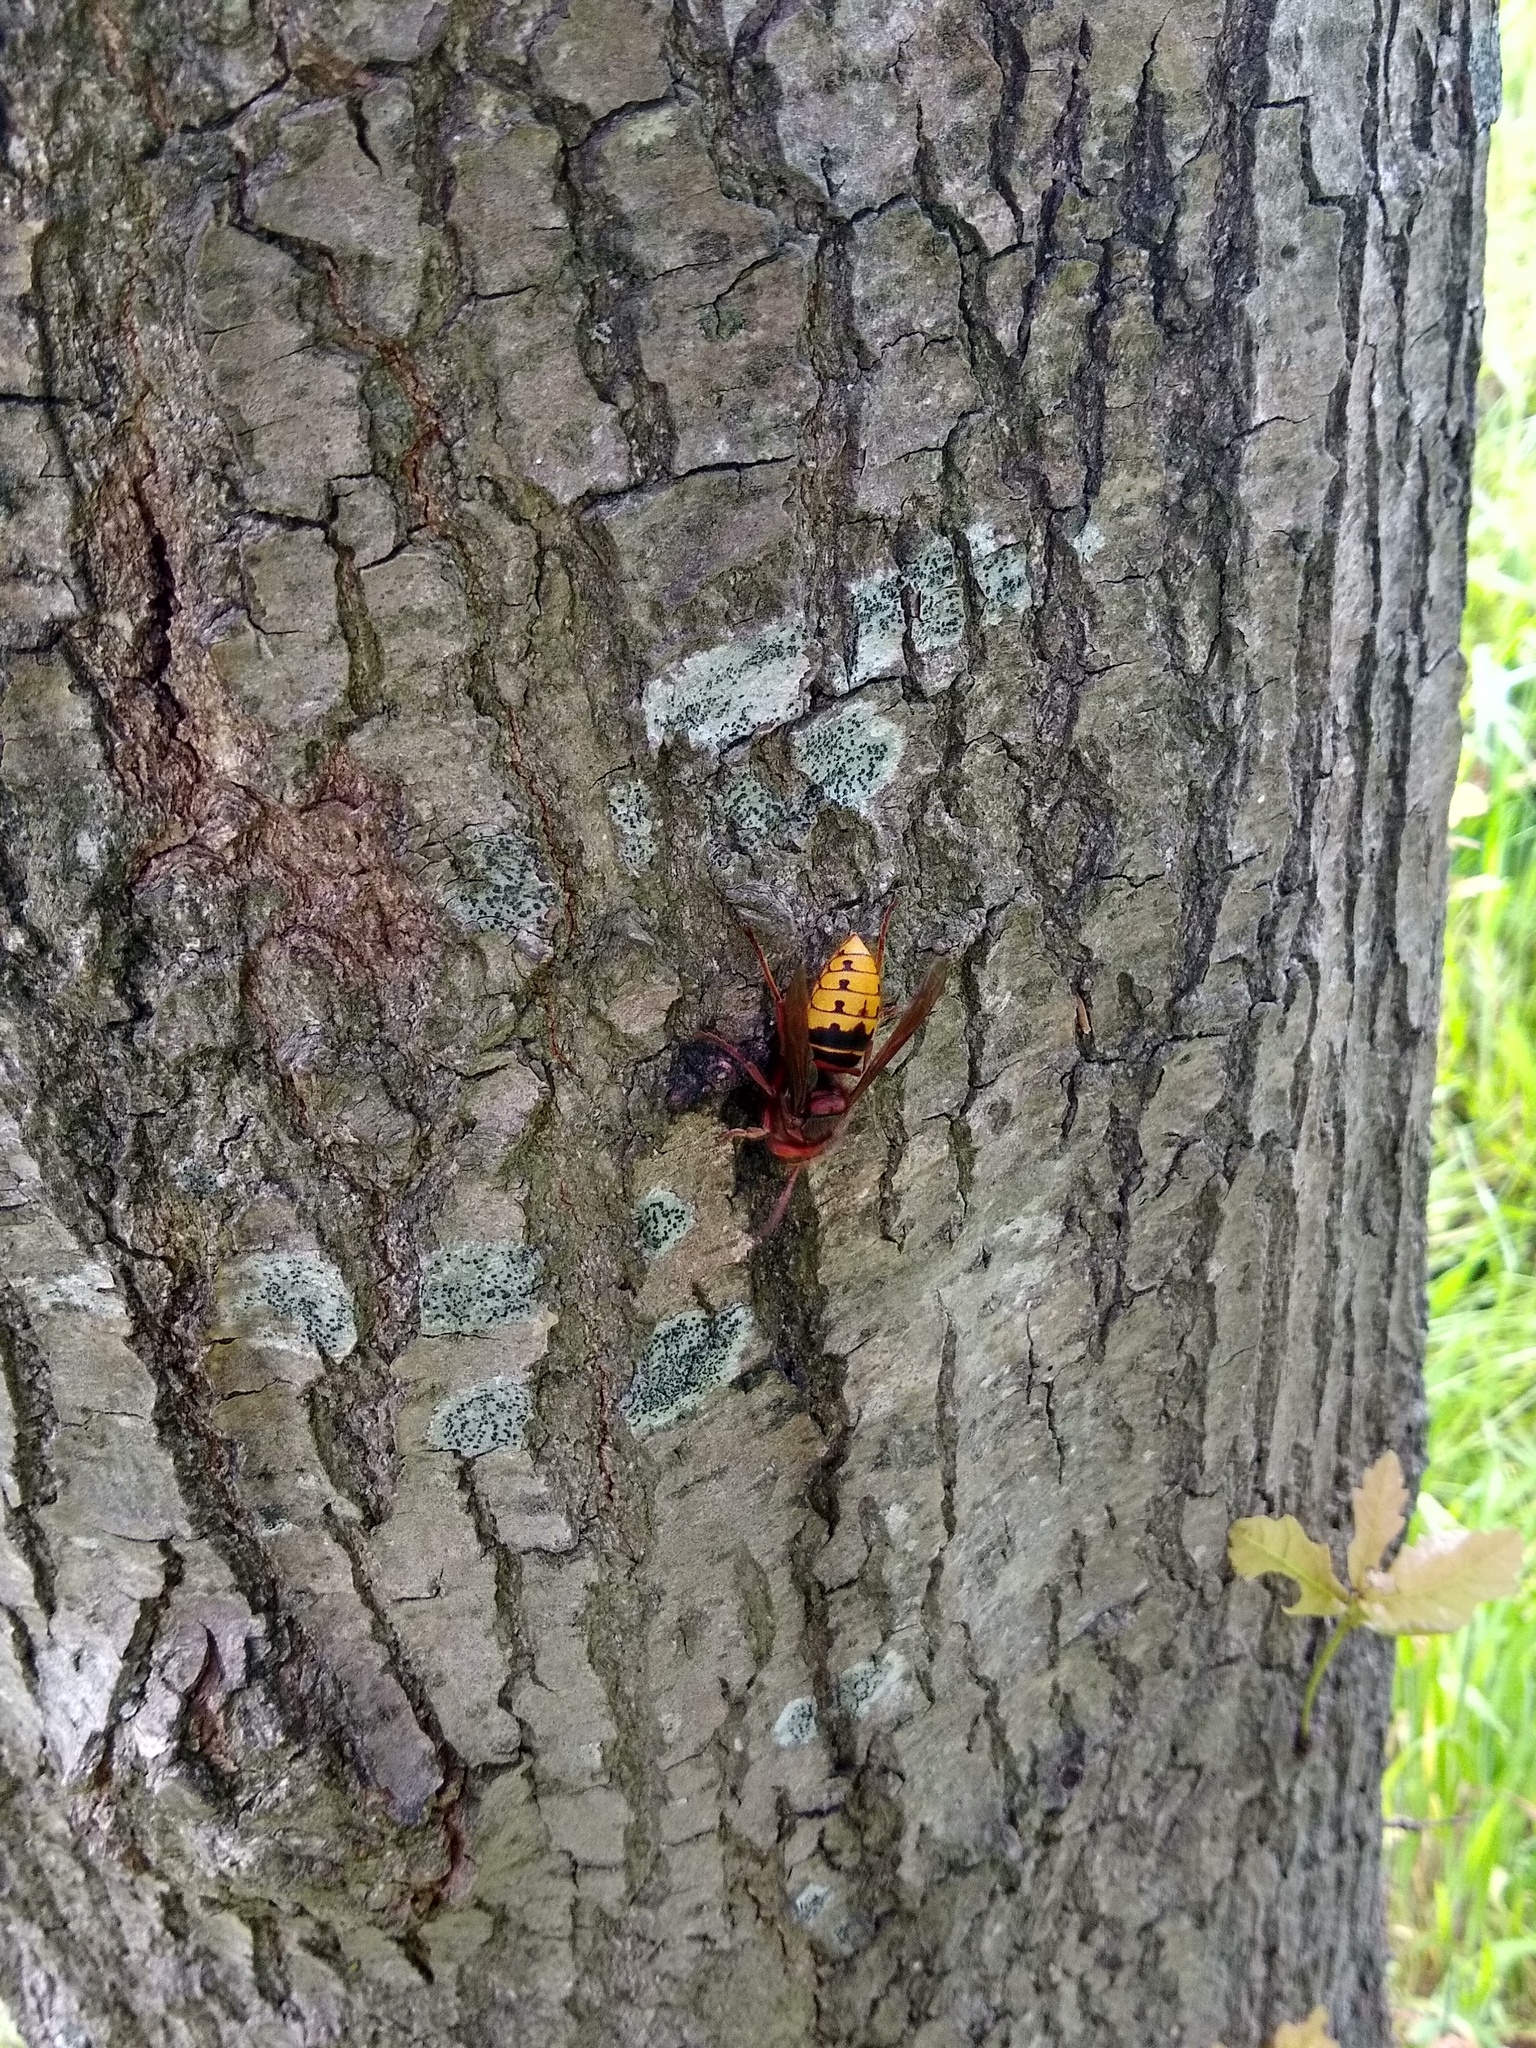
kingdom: Animalia
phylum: Arthropoda
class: Insecta
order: Hymenoptera
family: Vespidae
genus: Vespa
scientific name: Vespa crabro
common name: Hornet
